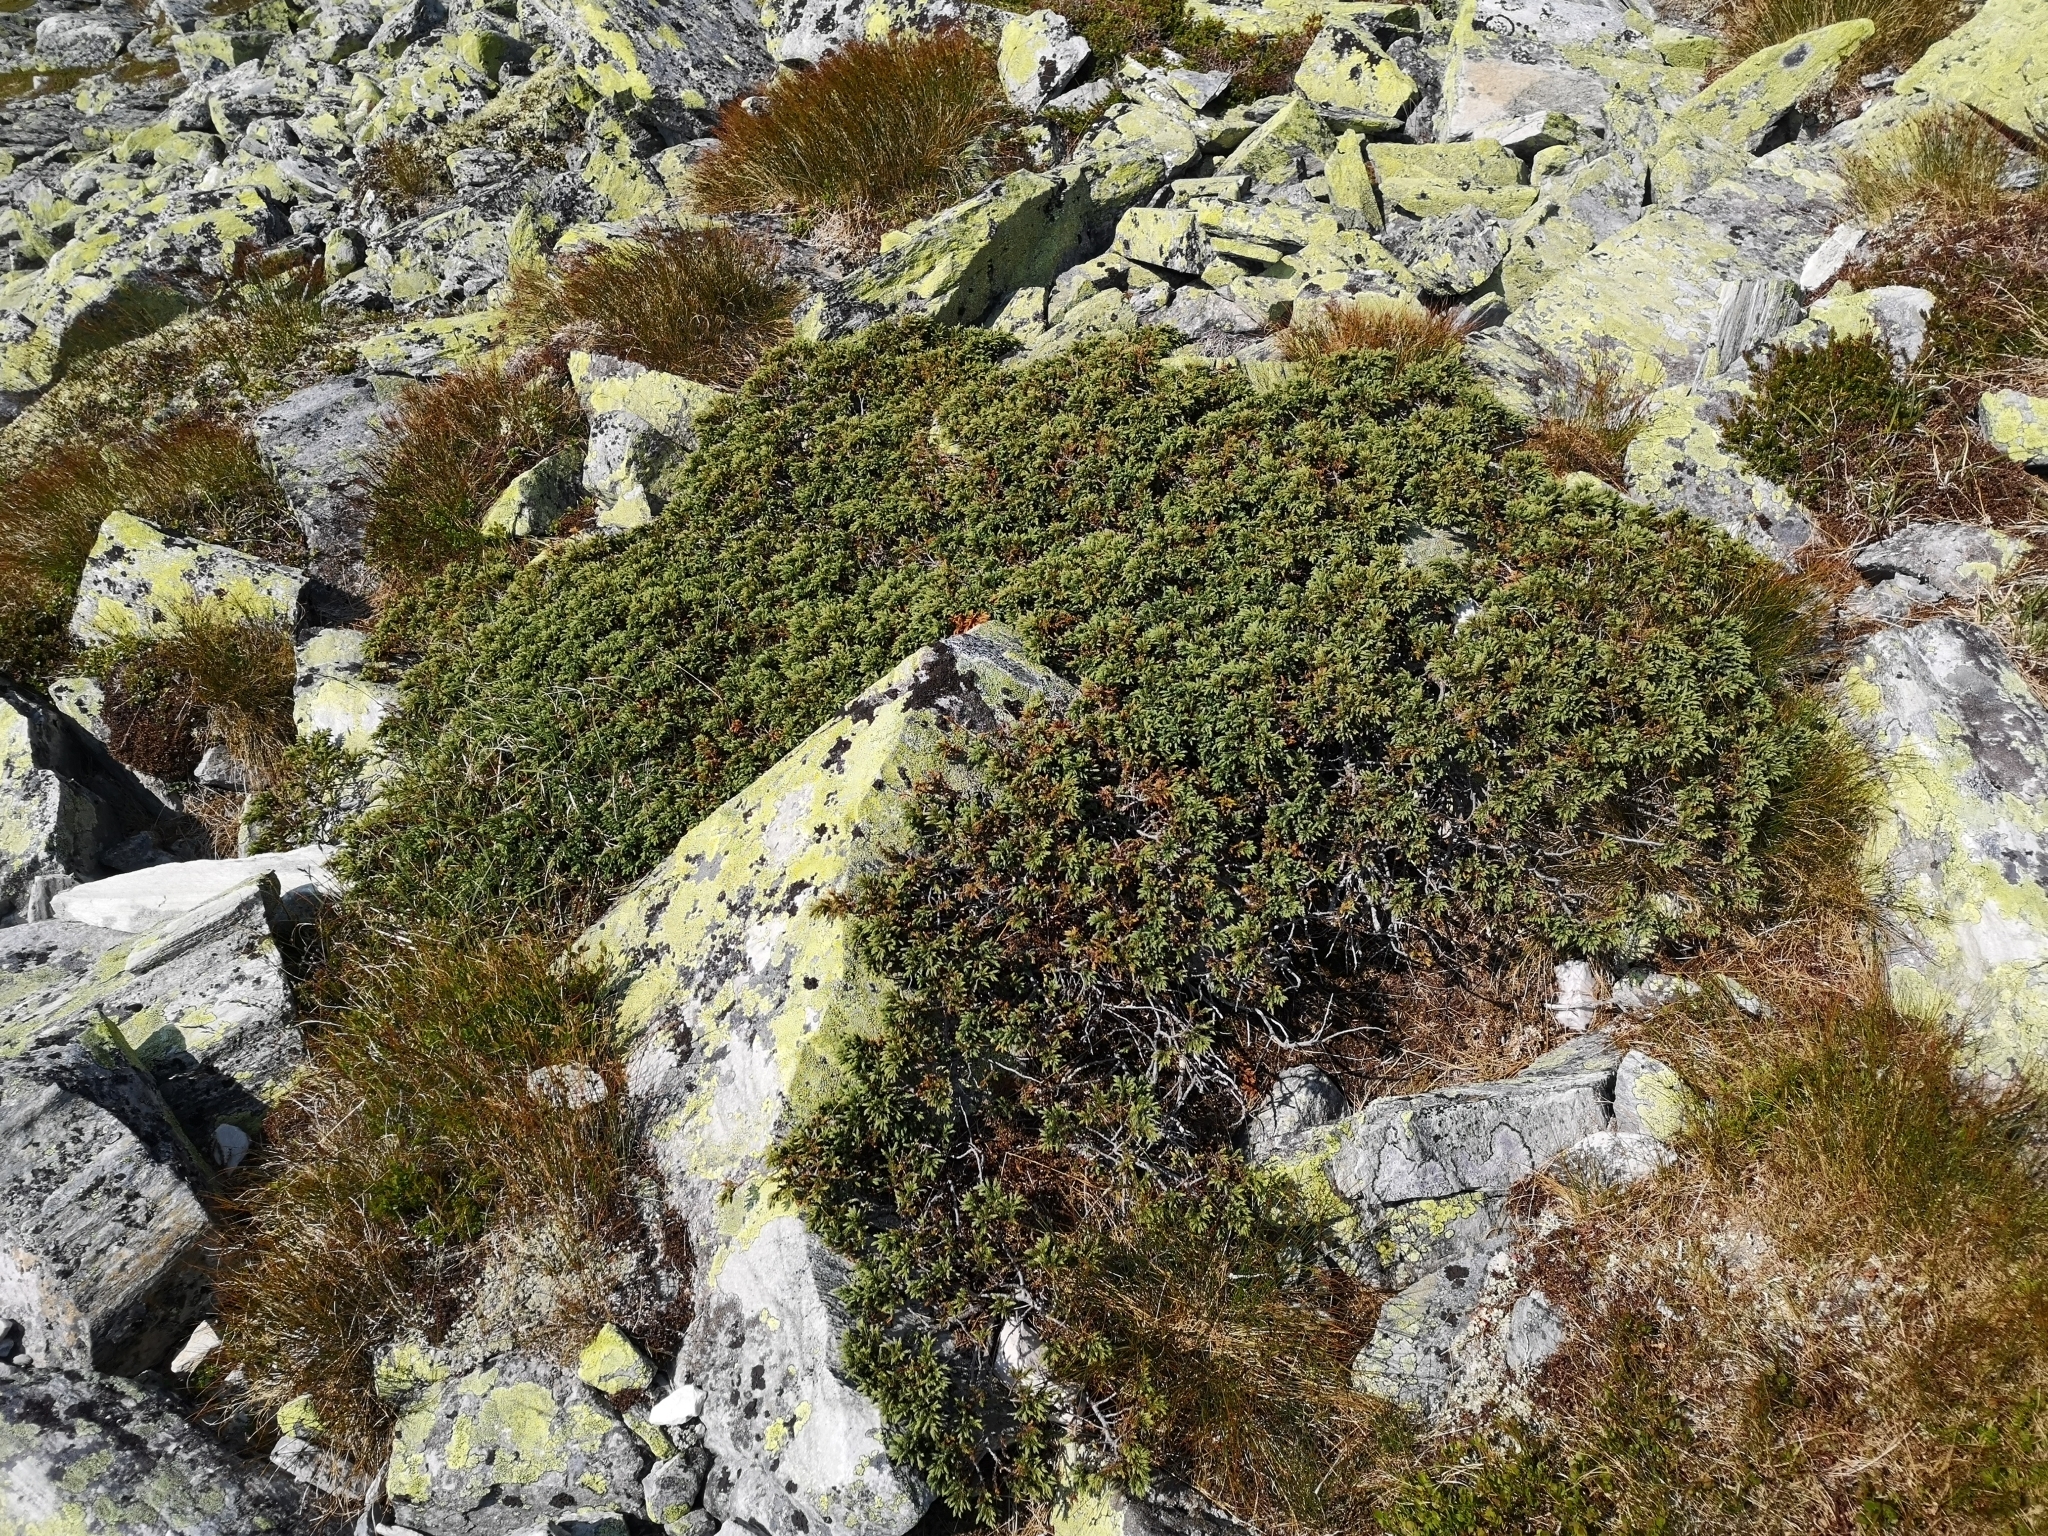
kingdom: Plantae
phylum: Tracheophyta
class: Pinopsida
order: Pinales
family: Cupressaceae
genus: Juniperus
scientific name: Juniperus communis
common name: Common juniper
